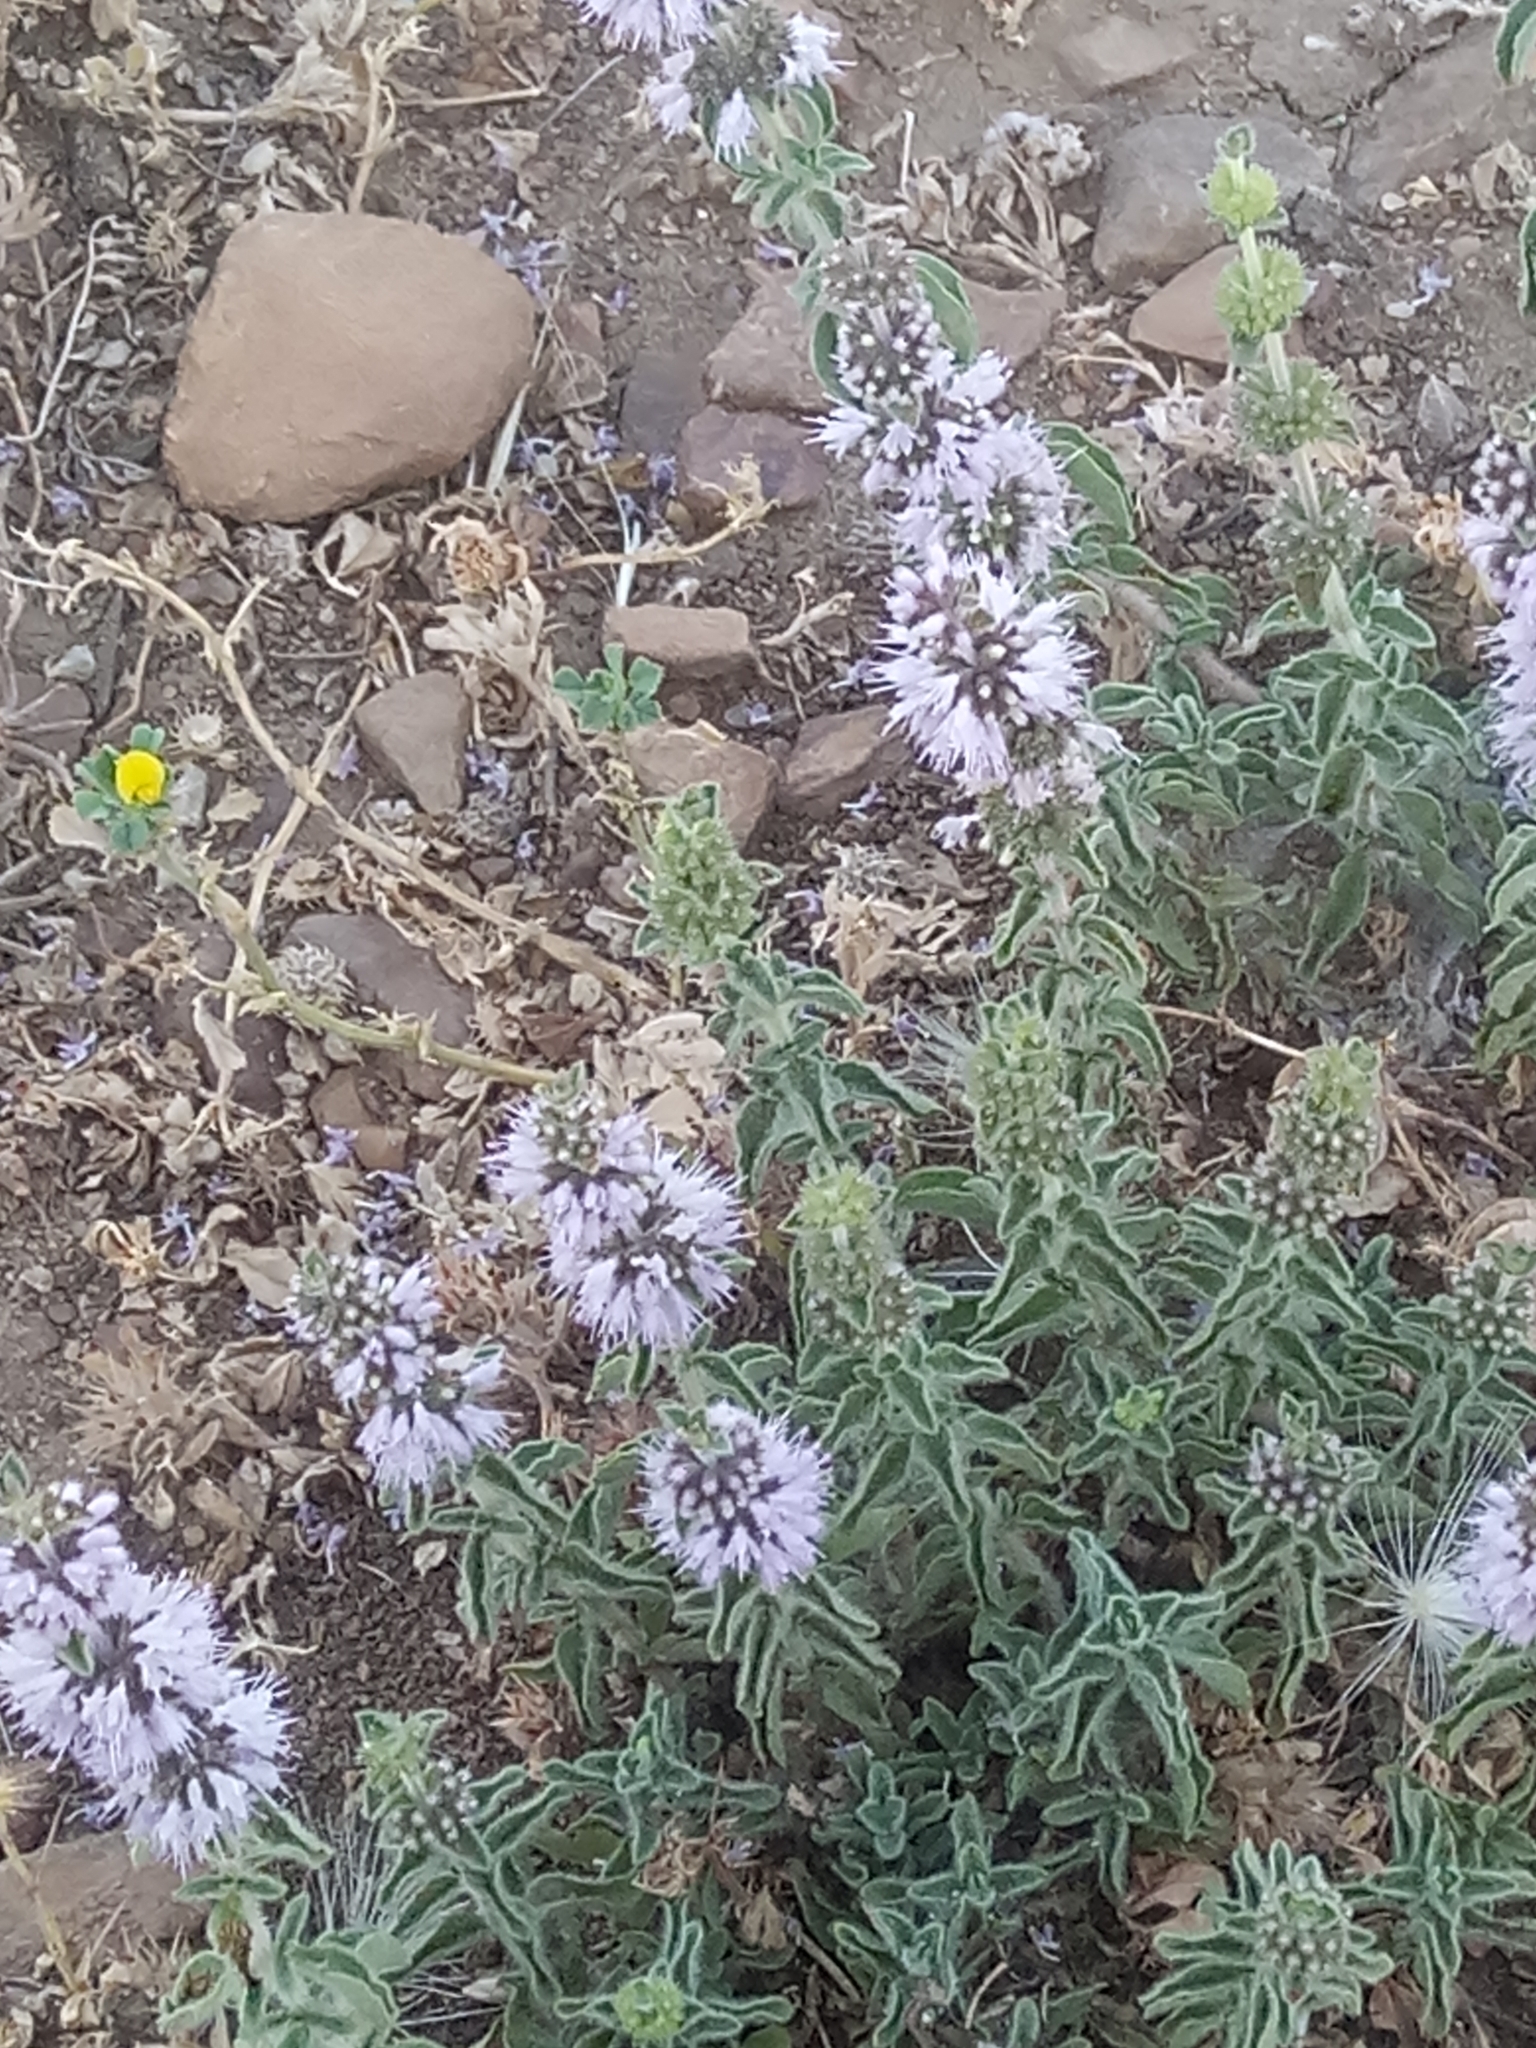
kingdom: Plantae
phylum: Tracheophyta
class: Magnoliopsida
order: Lamiales
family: Lamiaceae
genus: Mentha
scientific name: Mentha pulegium
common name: Pennyroyal
